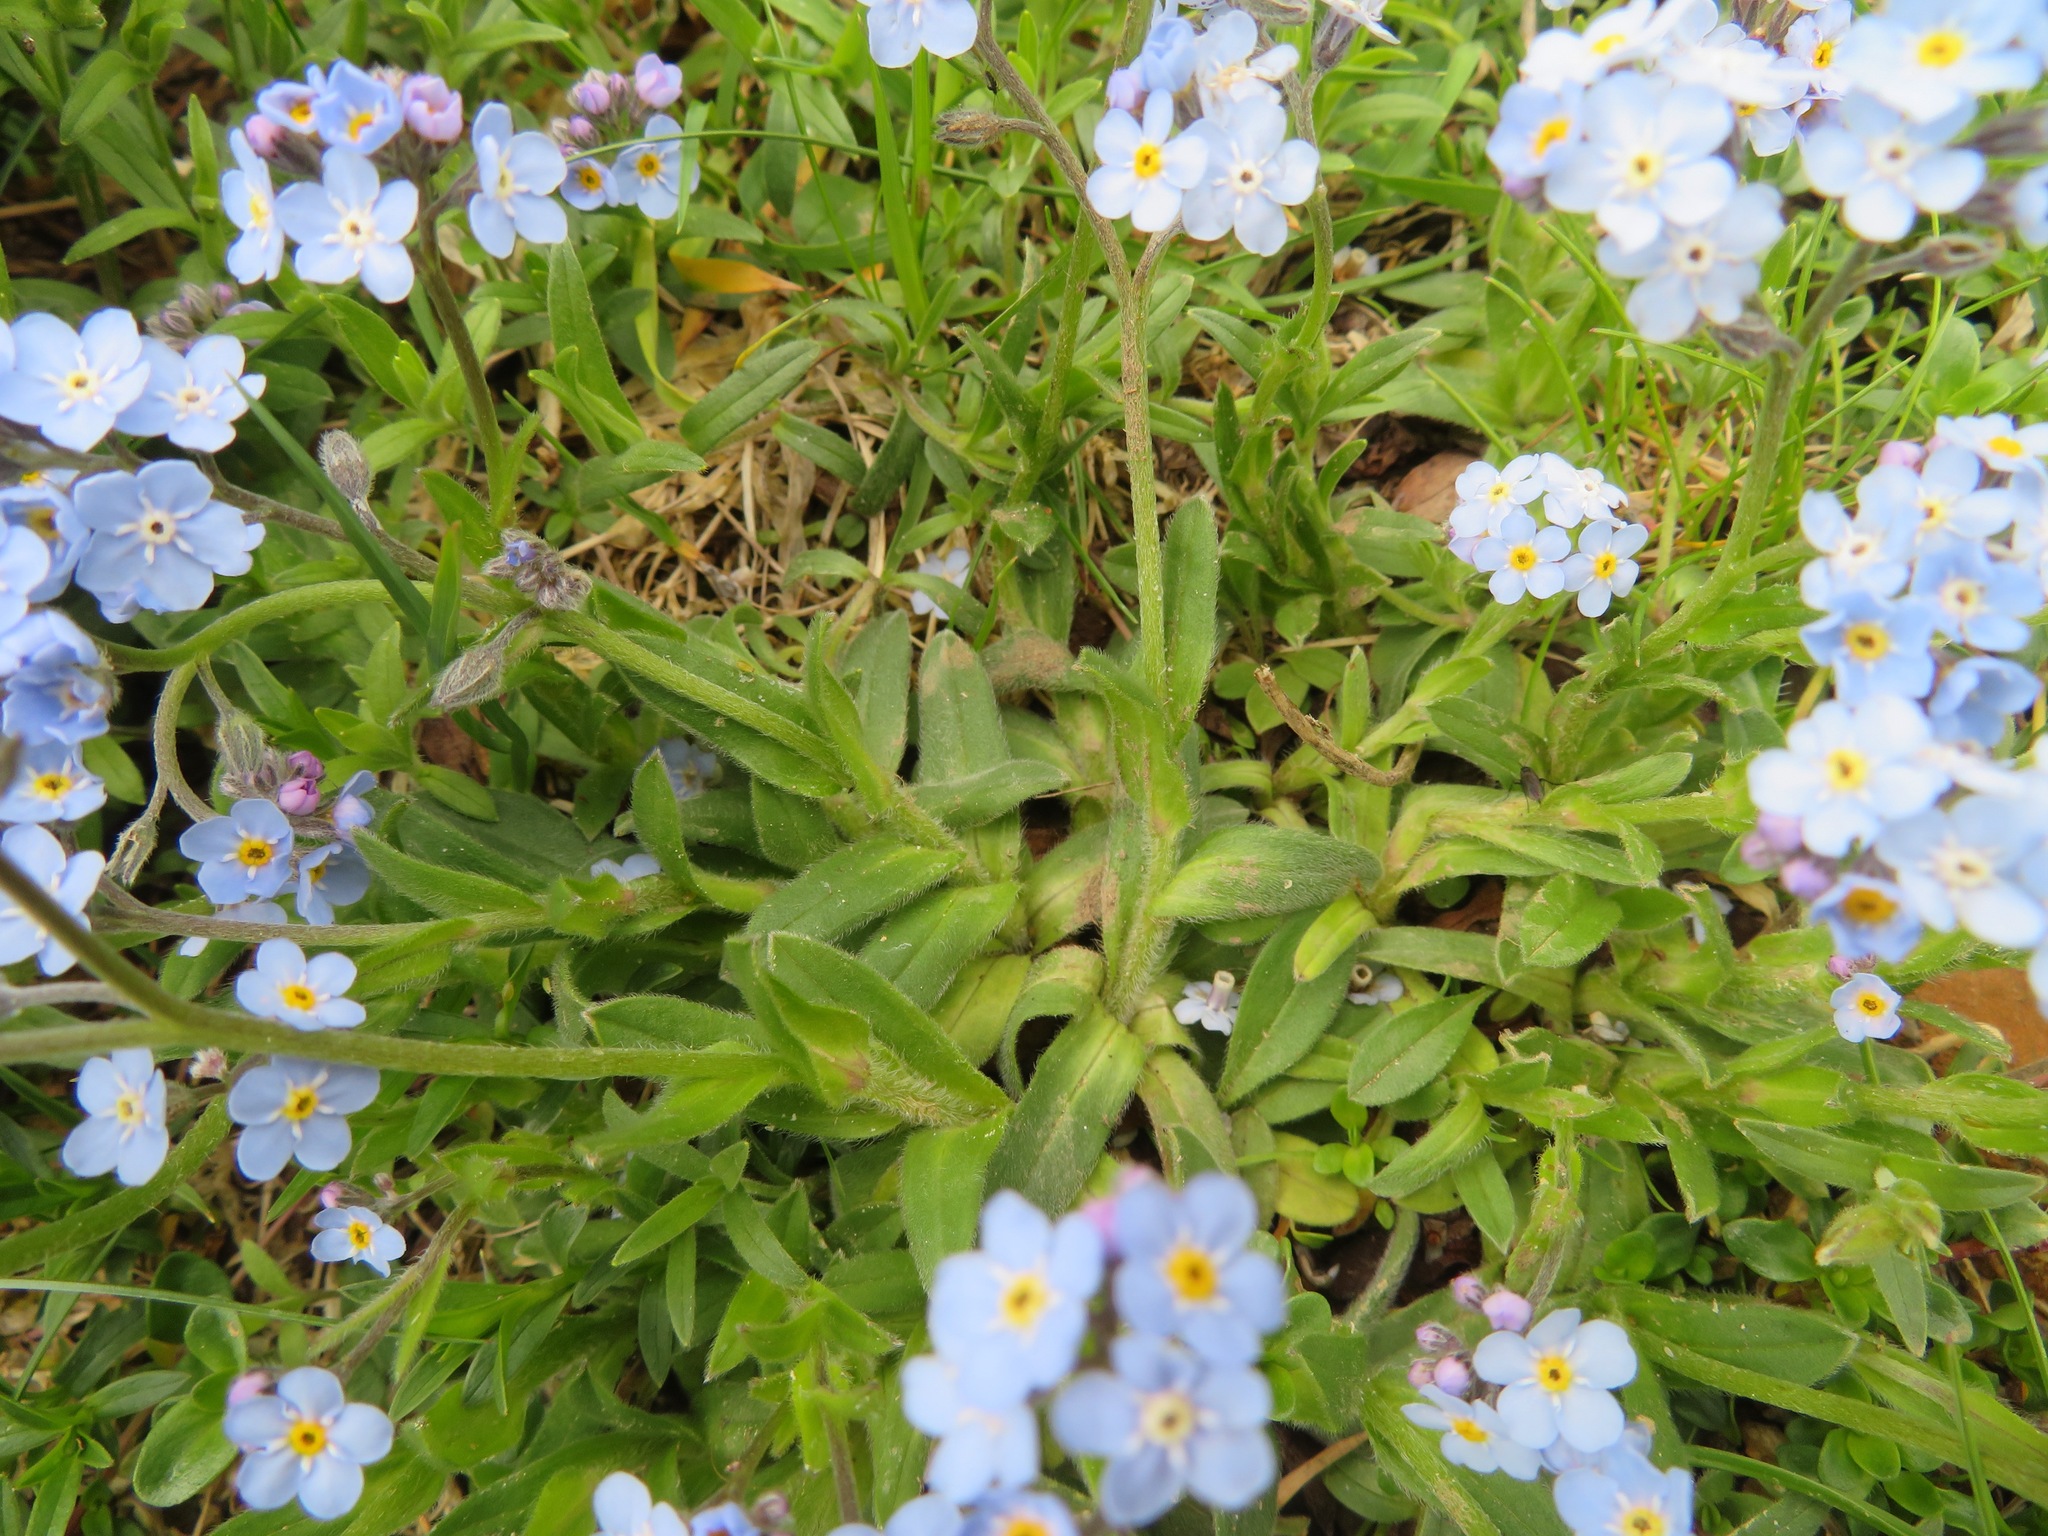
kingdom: Plantae
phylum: Tracheophyta
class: Magnoliopsida
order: Boraginales
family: Boraginaceae
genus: Myosotis
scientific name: Myosotis alpestris
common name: Alpine forget-me-not
